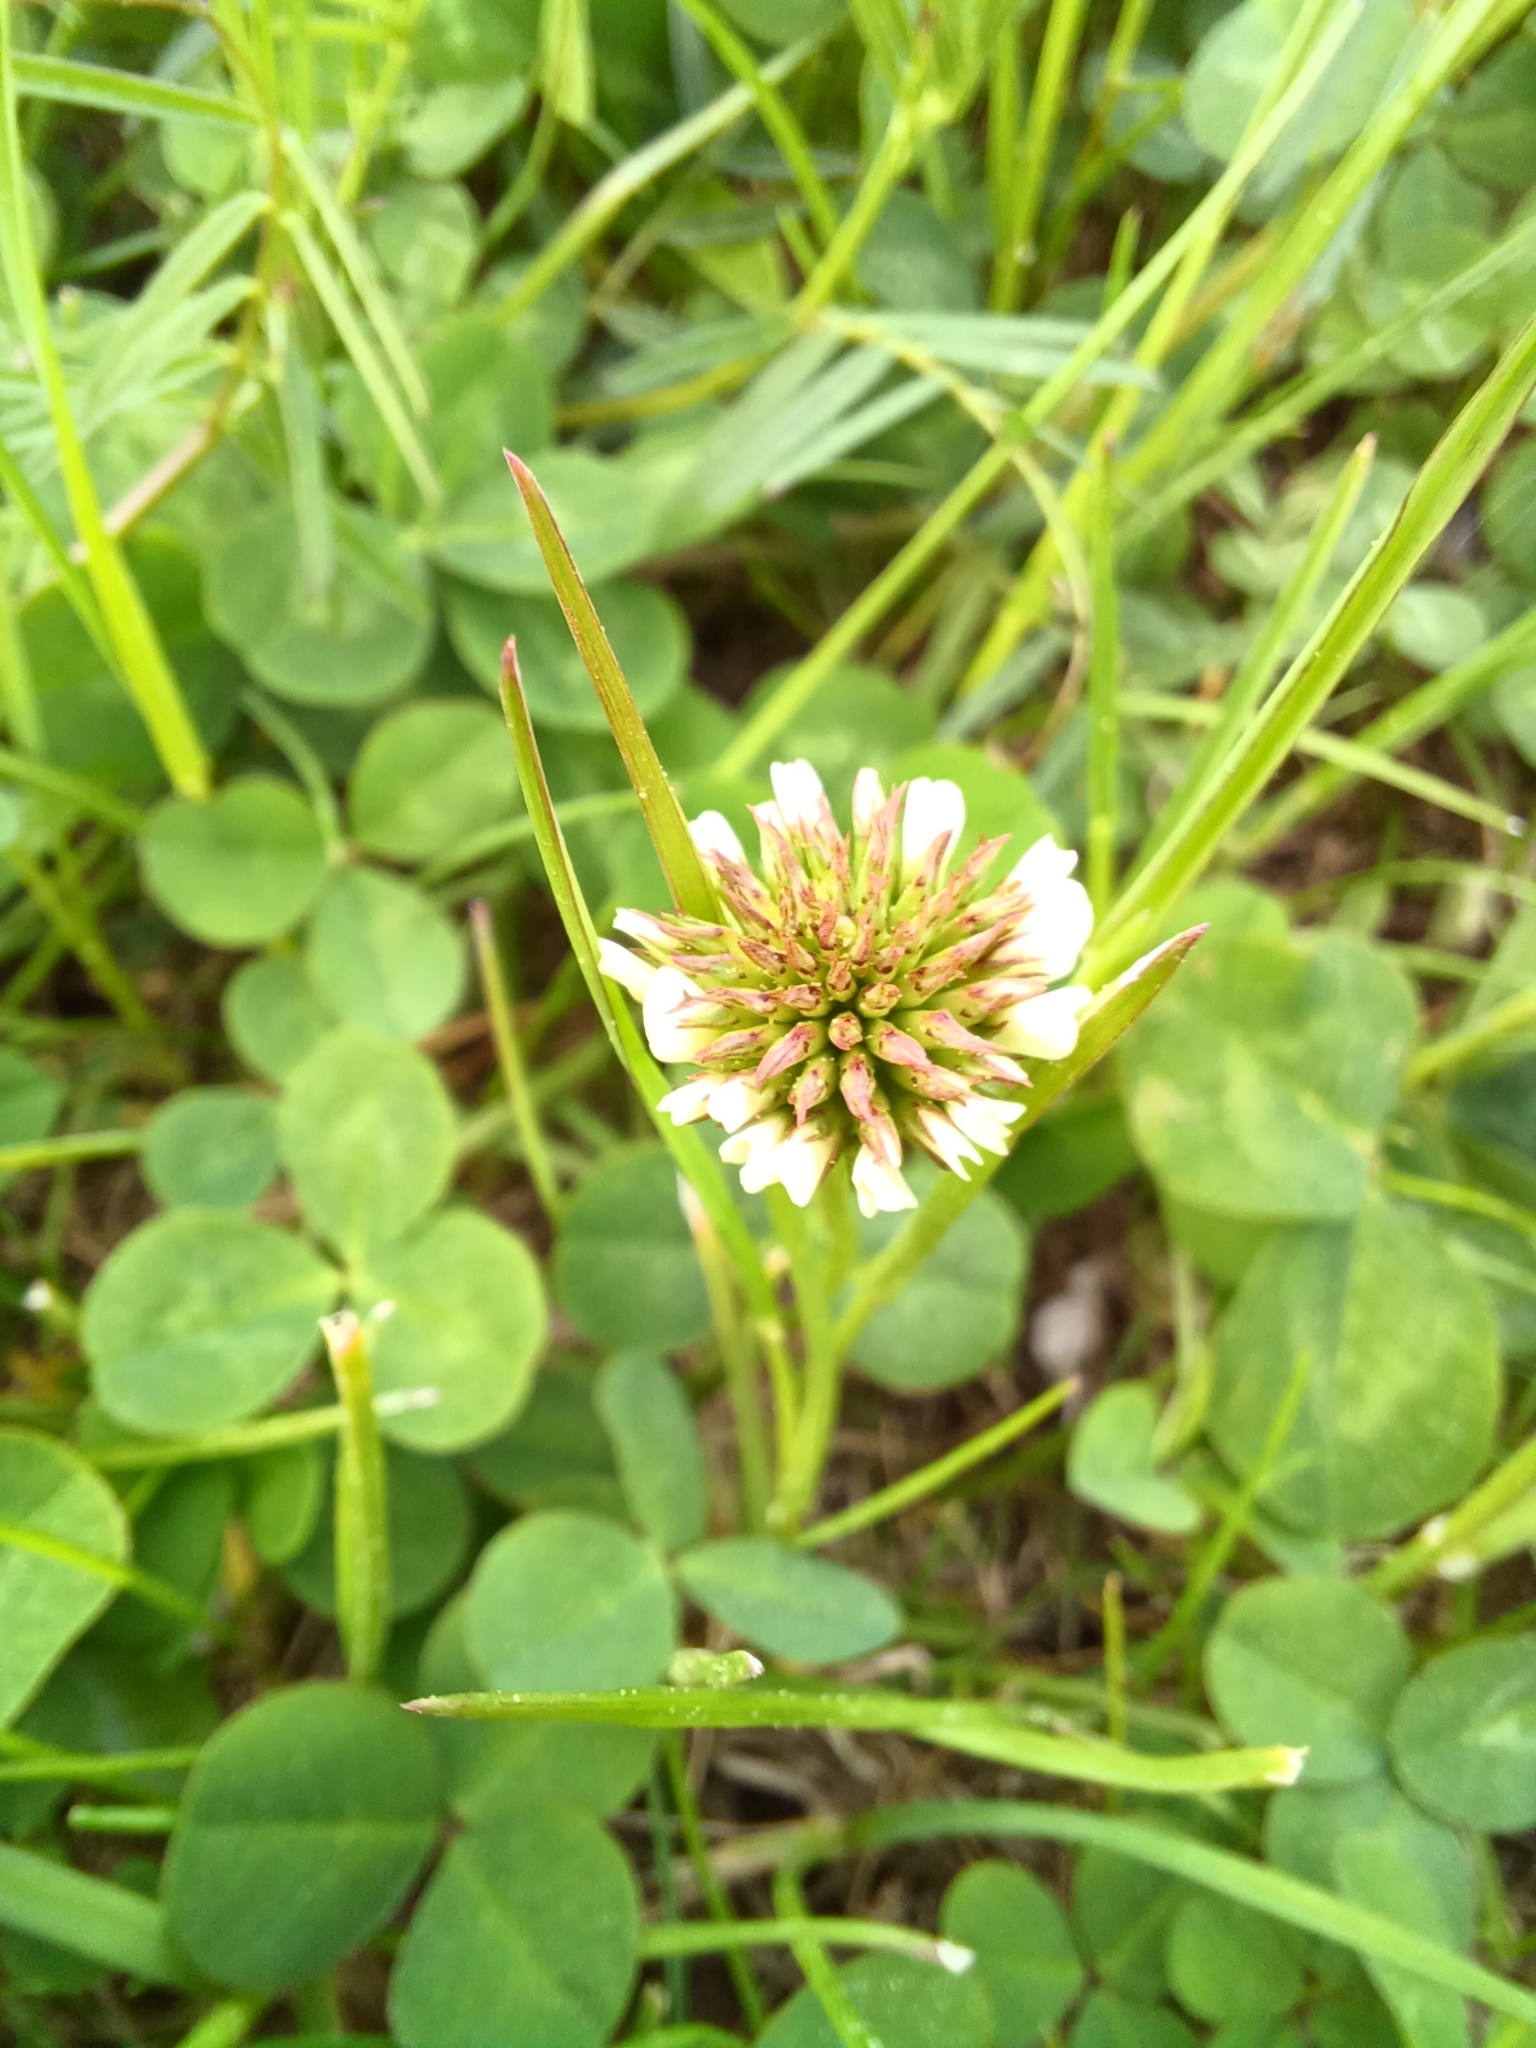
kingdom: Plantae
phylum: Tracheophyta
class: Magnoliopsida
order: Fabales
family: Fabaceae
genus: Trifolium
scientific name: Trifolium repens
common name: White clover
